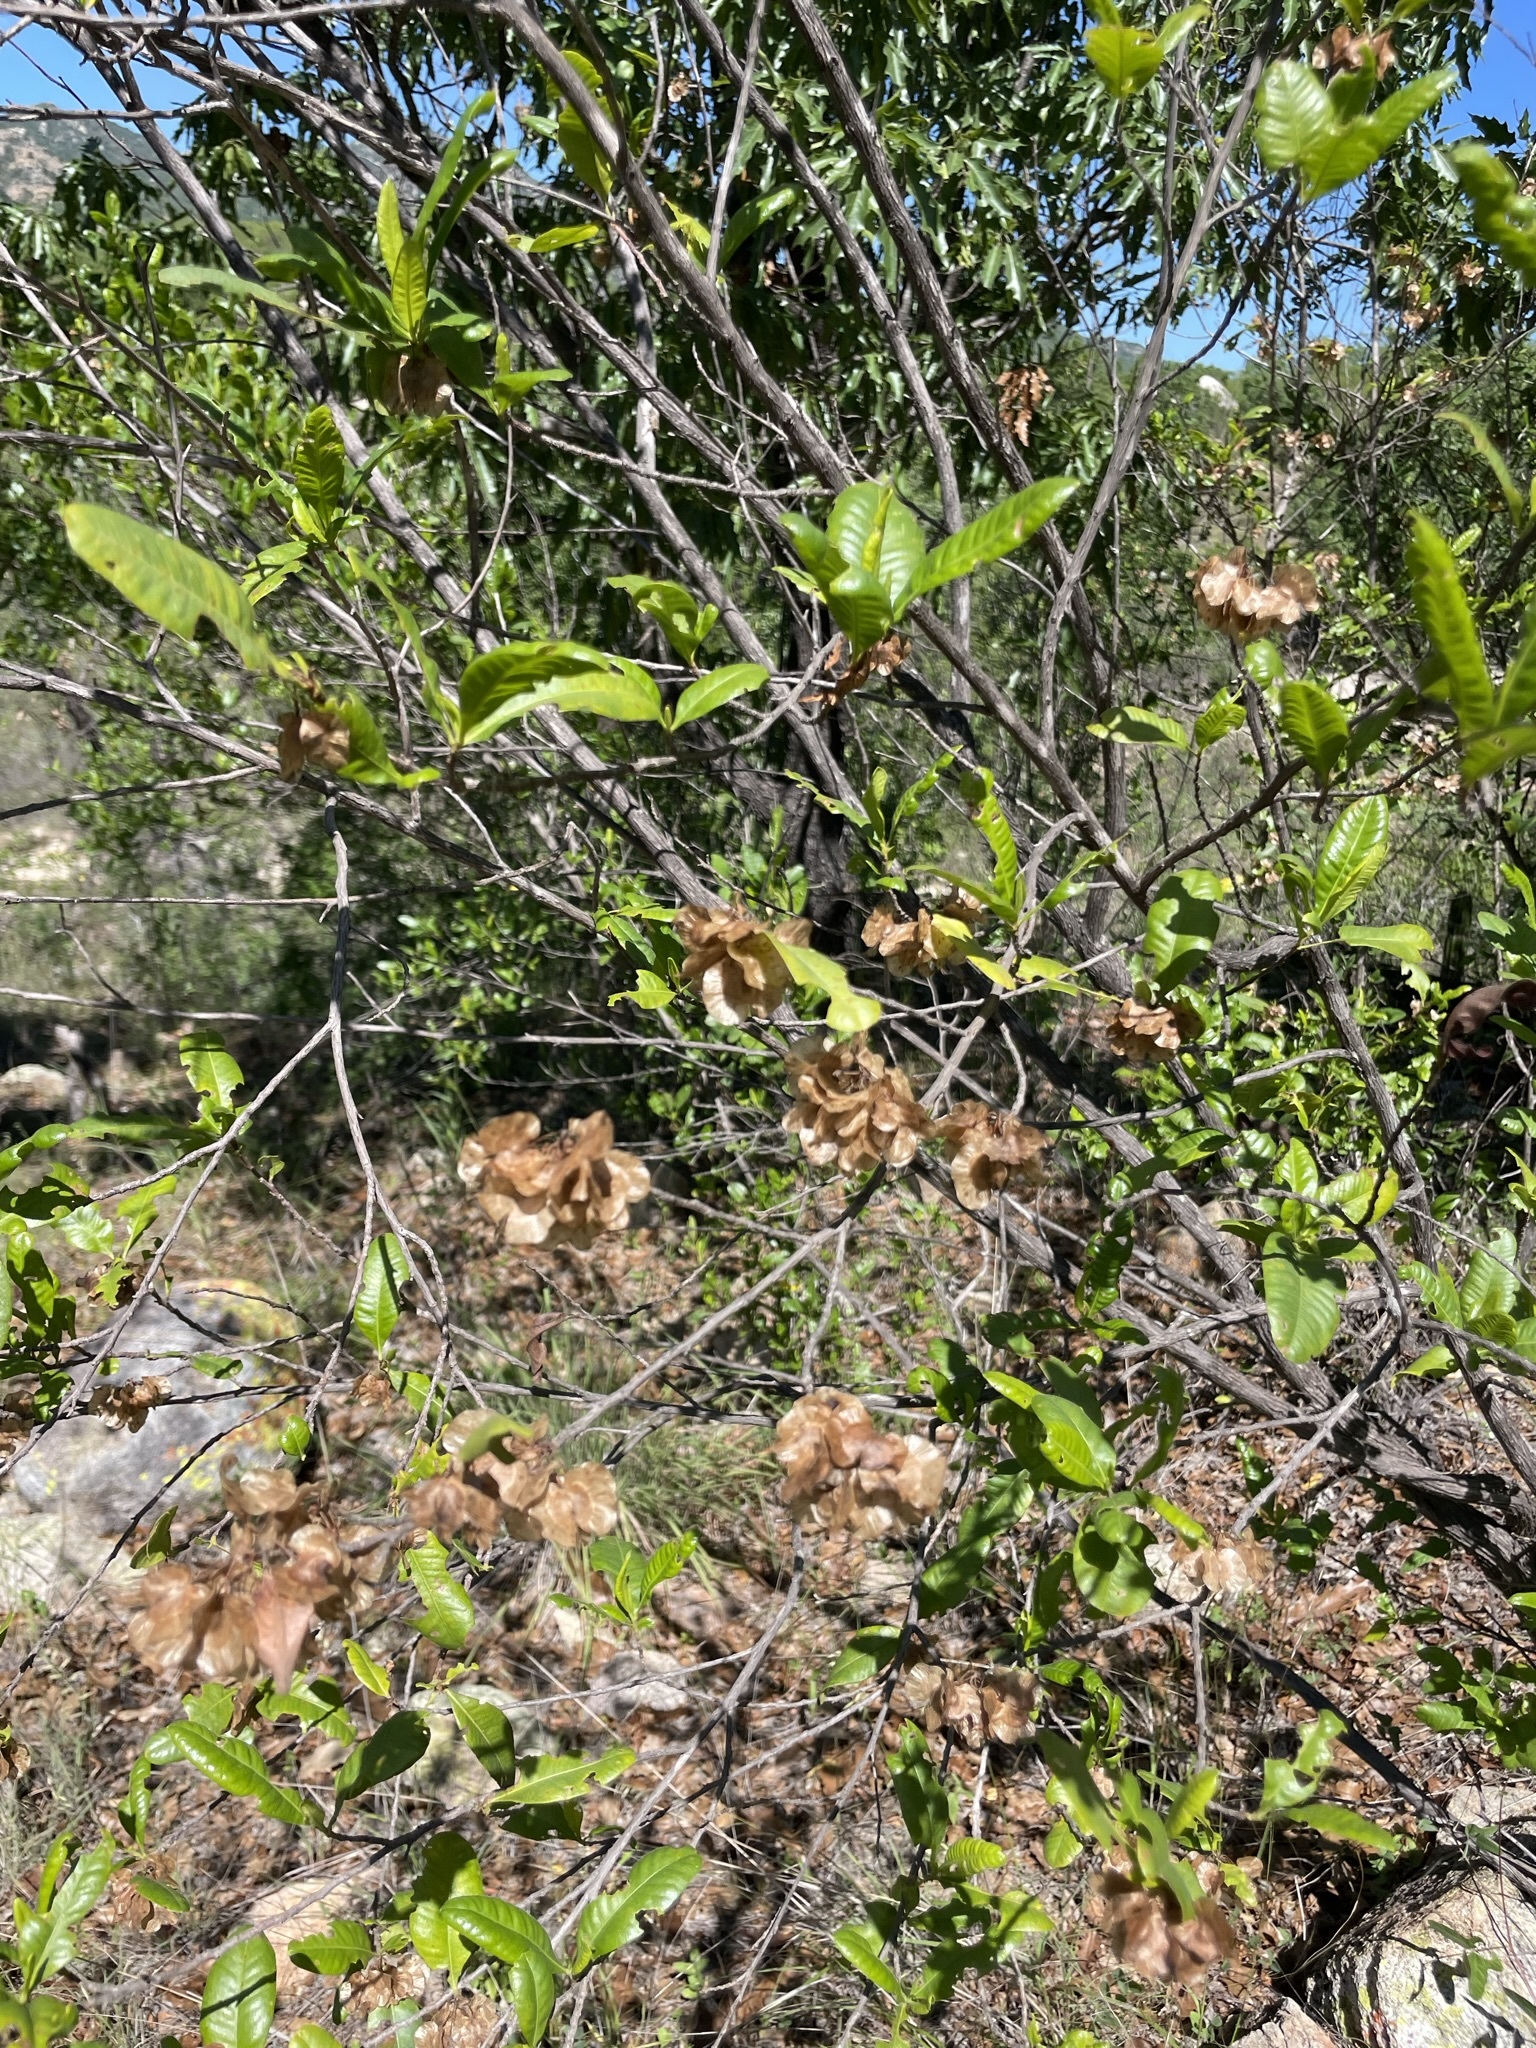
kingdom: Plantae
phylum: Tracheophyta
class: Magnoliopsida
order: Sapindales
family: Sapindaceae
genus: Dodonaea
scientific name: Dodonaea viscosa
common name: Hopbush
